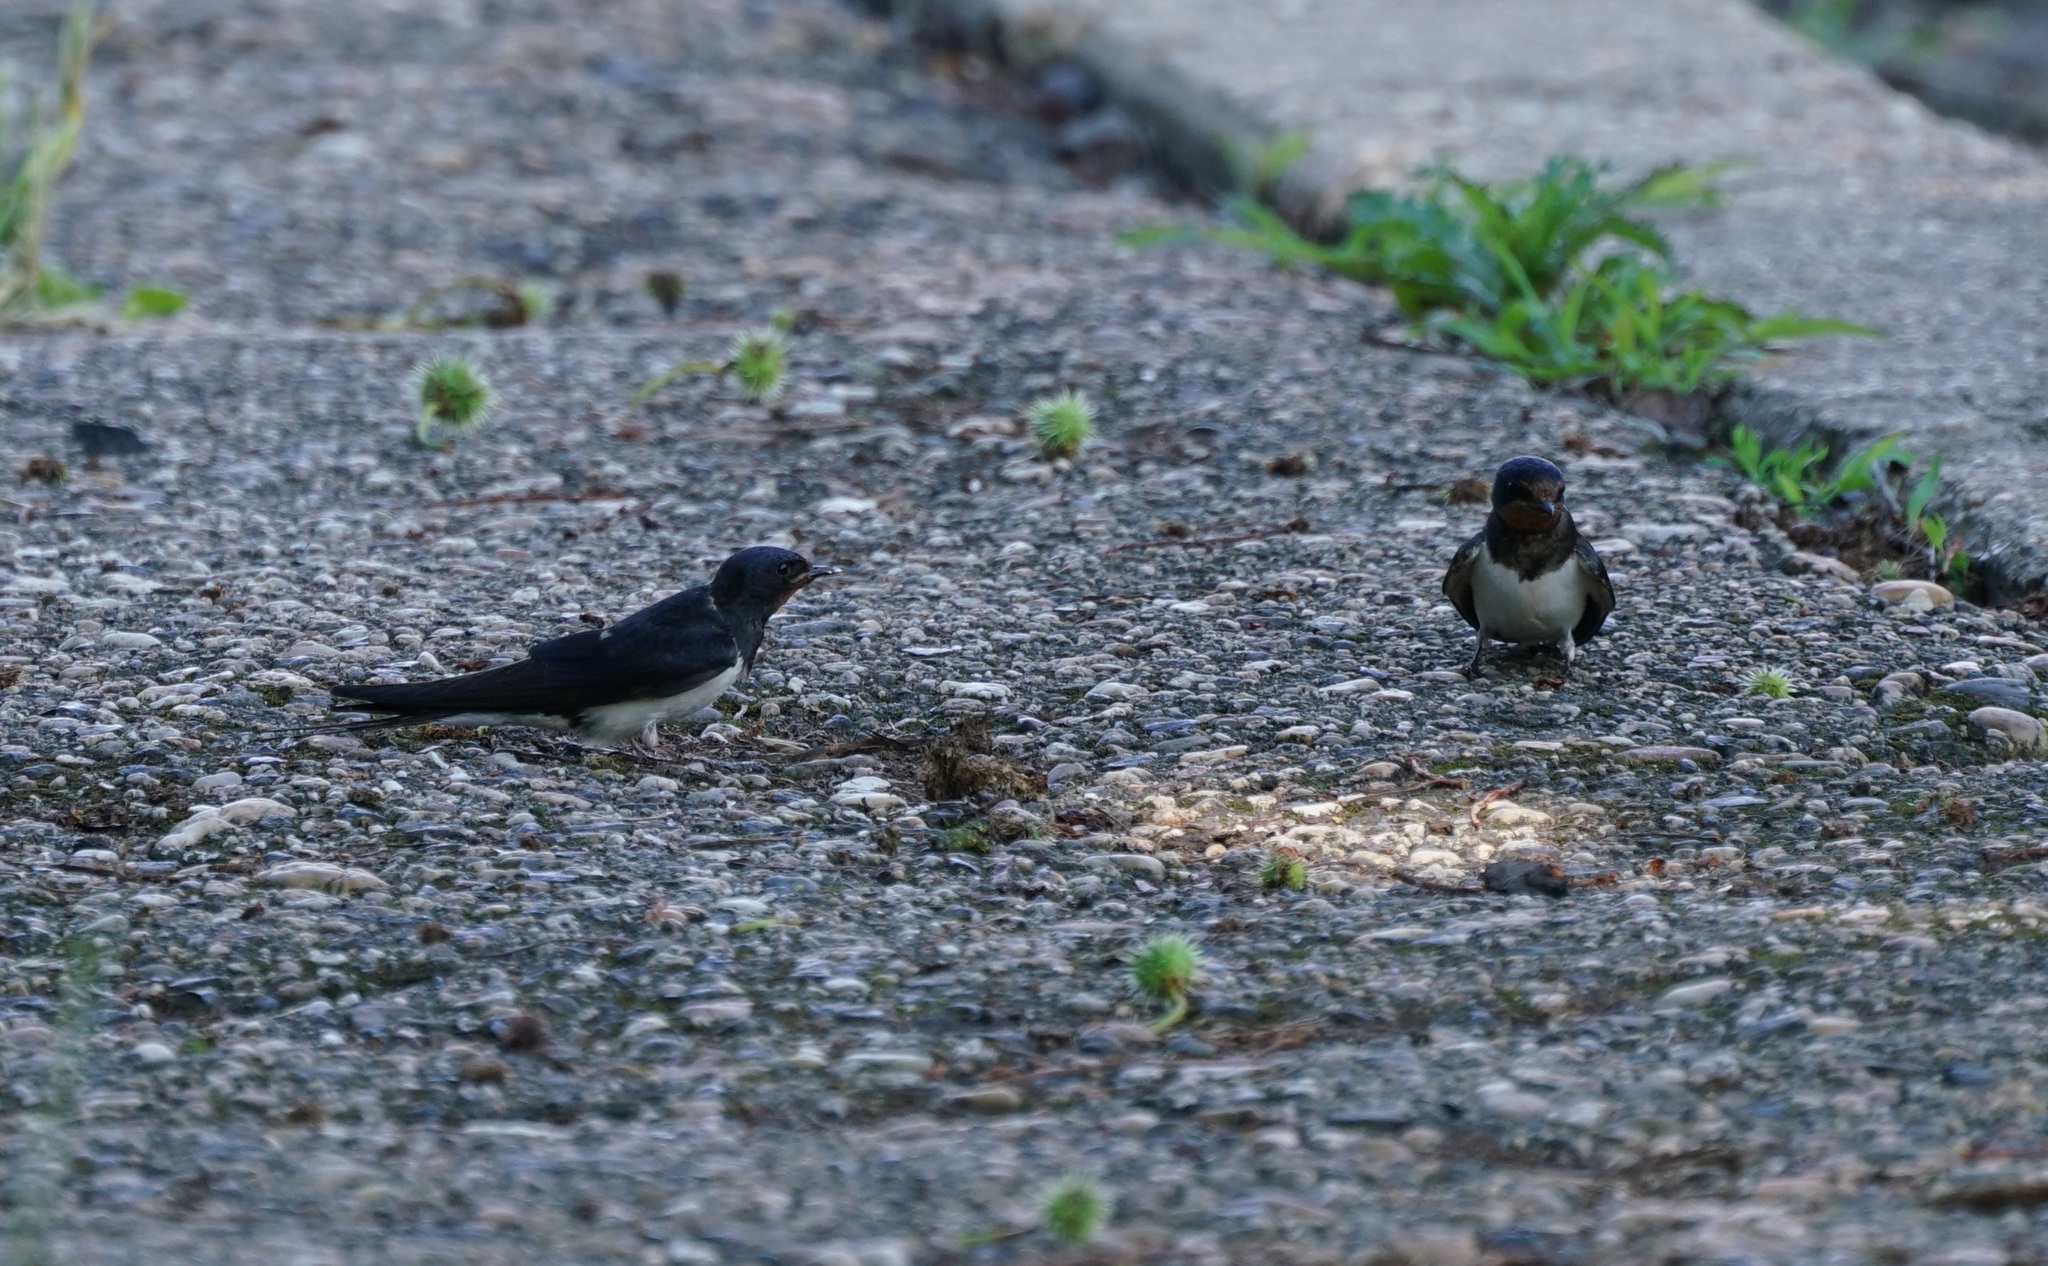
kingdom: Animalia
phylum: Chordata
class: Aves
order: Passeriformes
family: Hirundinidae
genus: Hirundo
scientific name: Hirundo rustica
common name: Barn swallow
